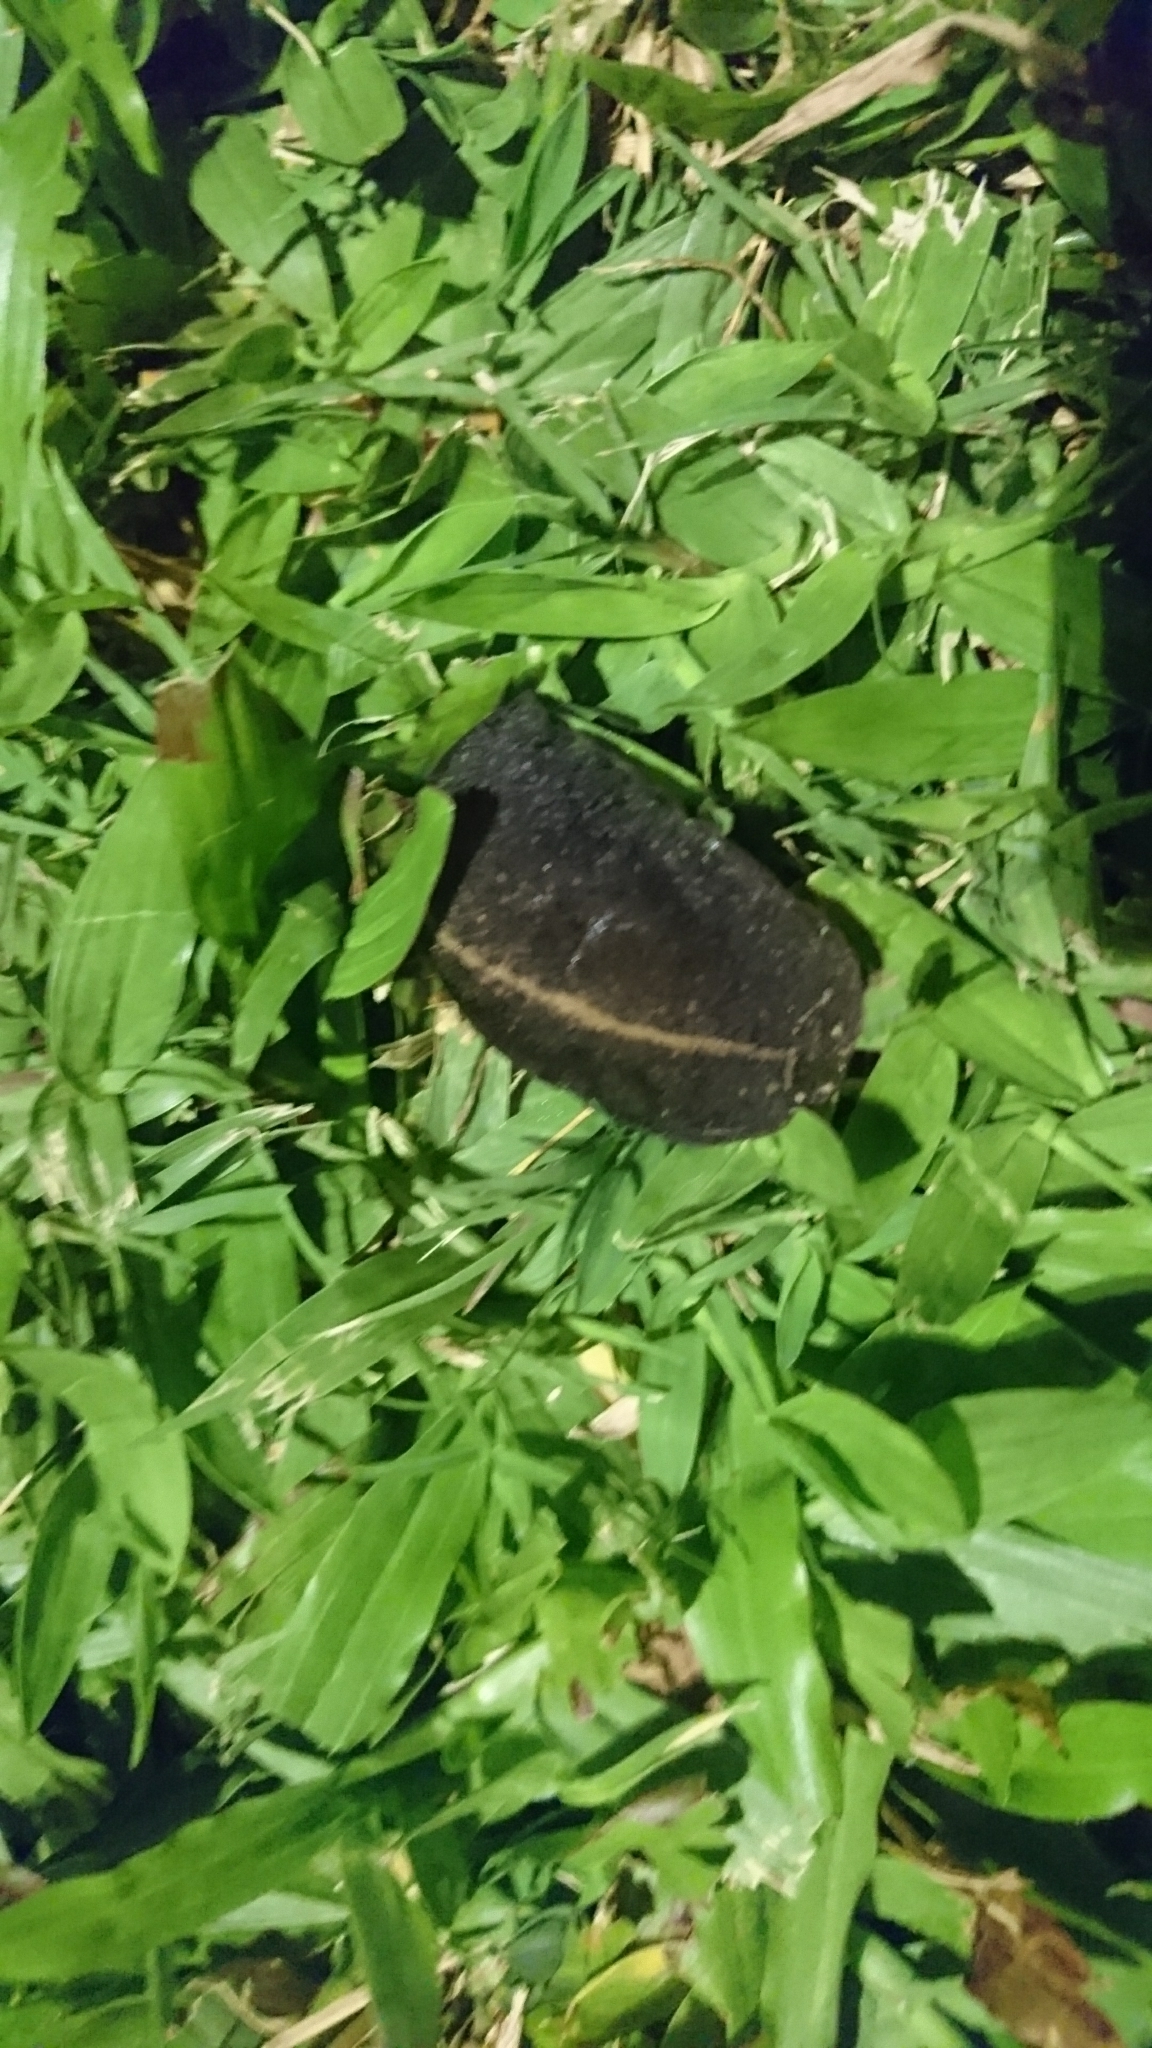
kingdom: Animalia
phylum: Mollusca
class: Gastropoda
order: Systellommatophora
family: Veronicellidae
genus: Laevicaulis
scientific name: Laevicaulis alte
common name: Tropical leatherleaf
